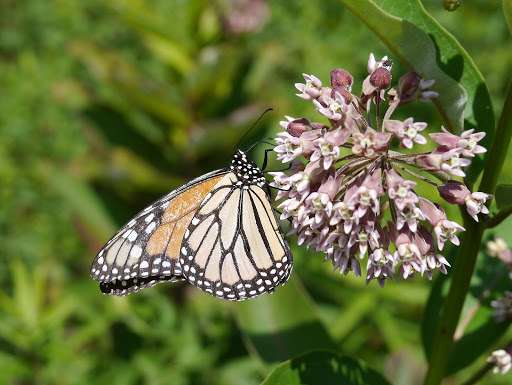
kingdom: Animalia
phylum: Arthropoda
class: Insecta
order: Lepidoptera
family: Nymphalidae
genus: Danaus
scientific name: Danaus plexippus
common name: Monarch
